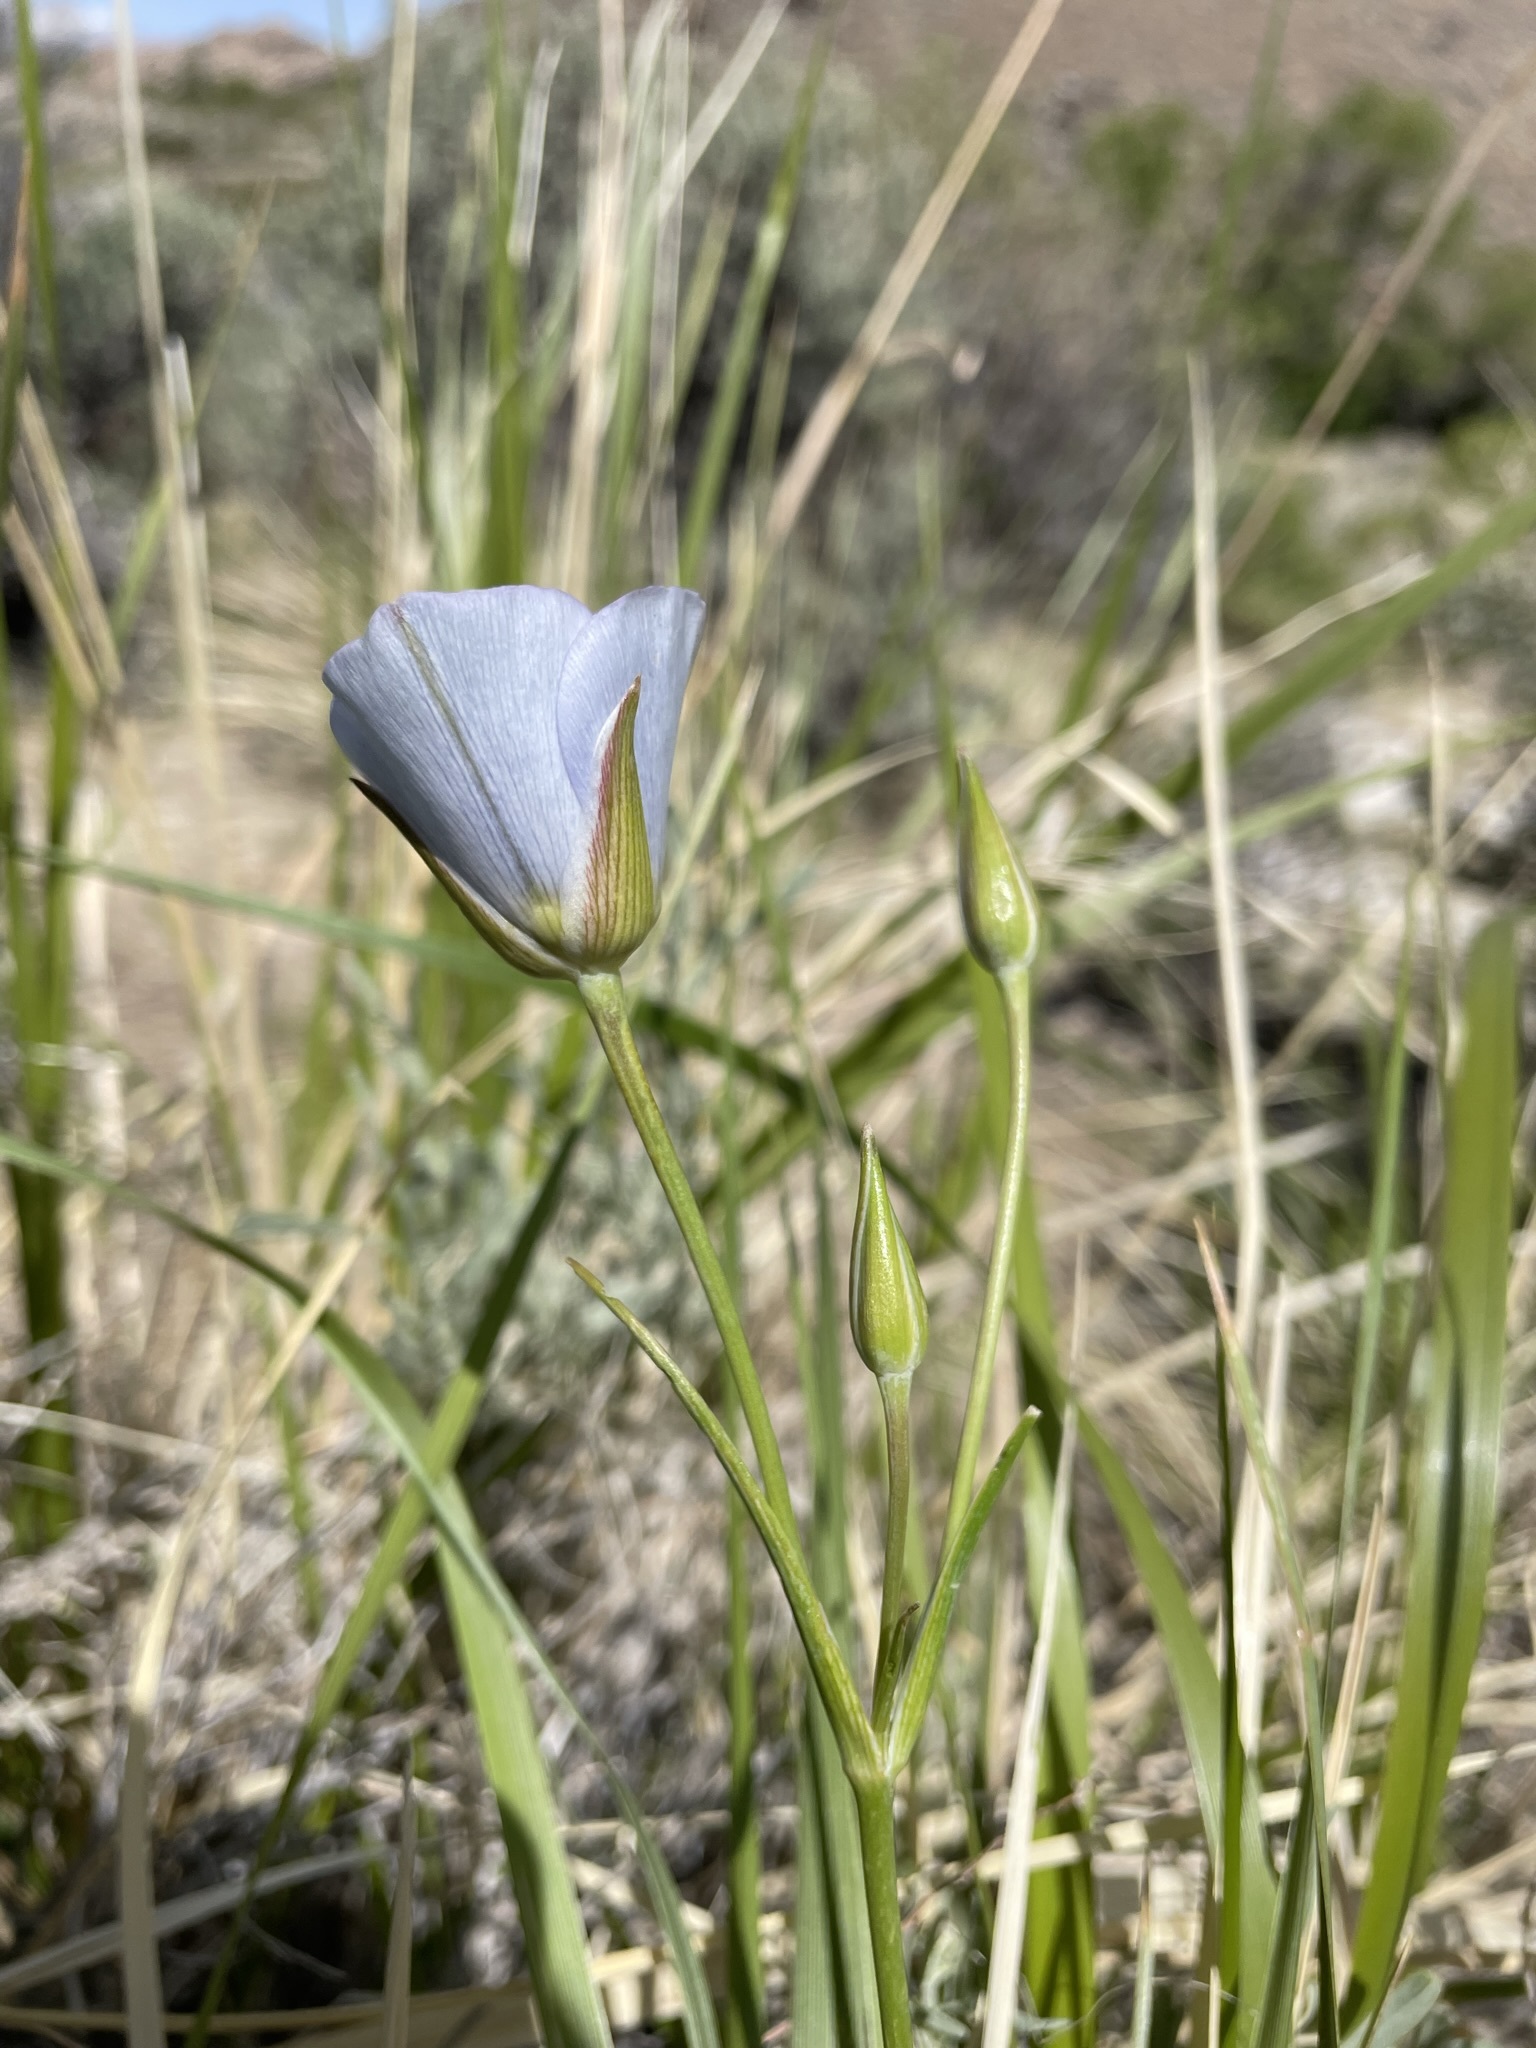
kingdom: Plantae
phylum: Tracheophyta
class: Liliopsida
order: Liliales
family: Liliaceae
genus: Calochortus
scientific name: Calochortus excavatus
